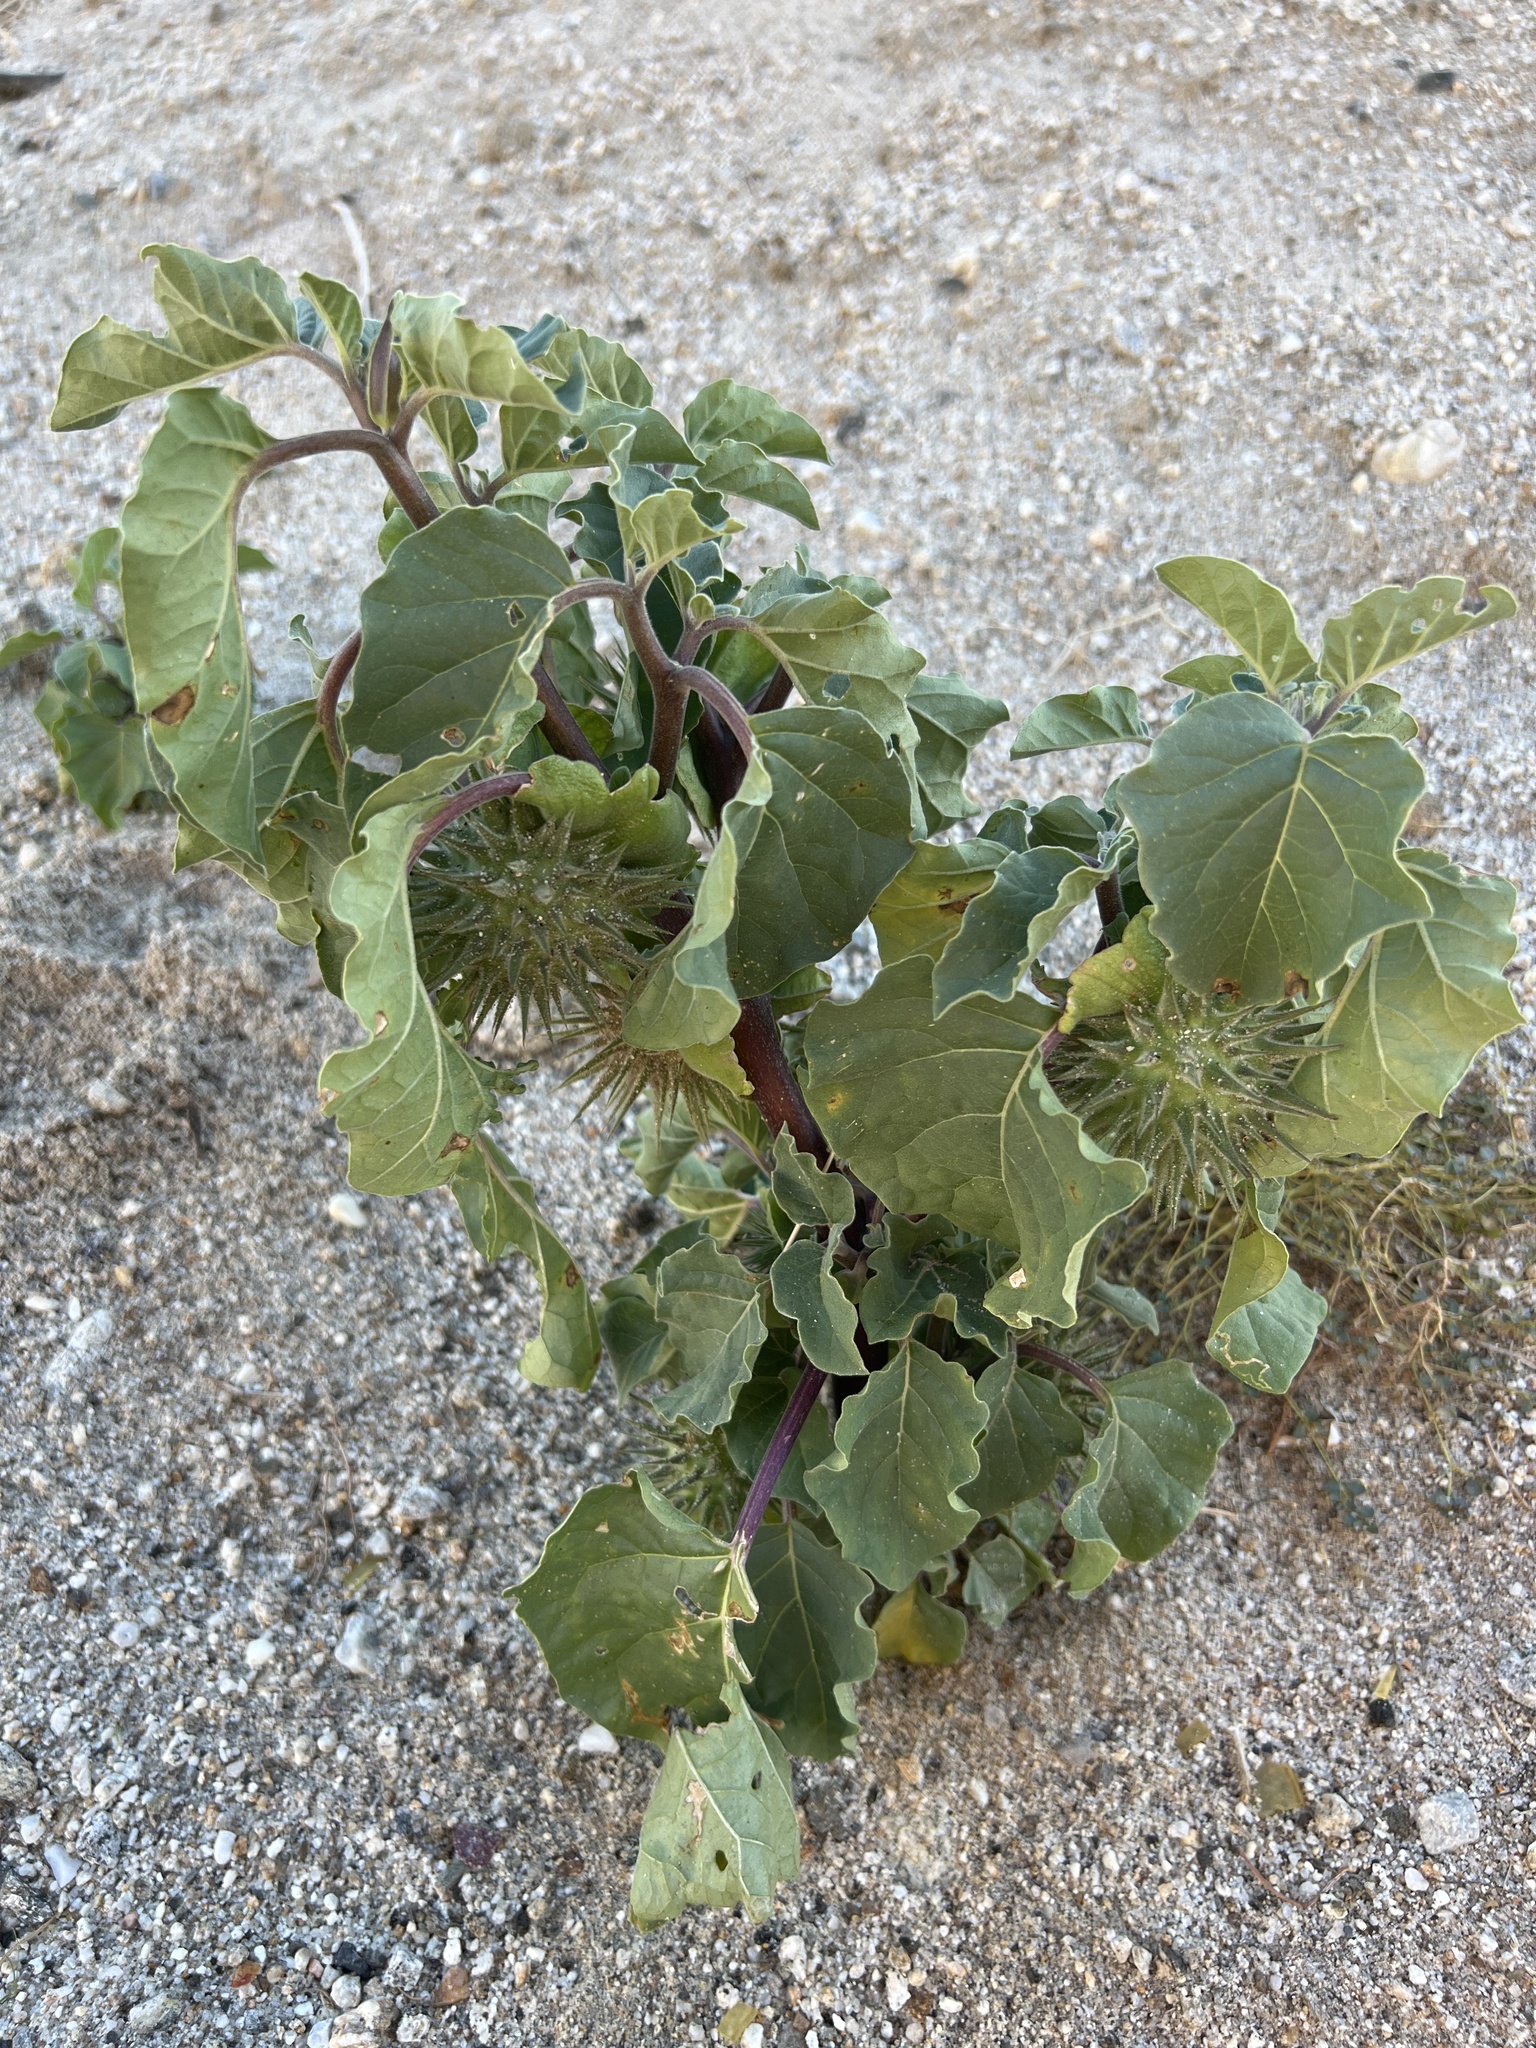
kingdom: Plantae
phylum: Tracheophyta
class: Magnoliopsida
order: Solanales
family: Solanaceae
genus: Datura
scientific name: Datura discolor
